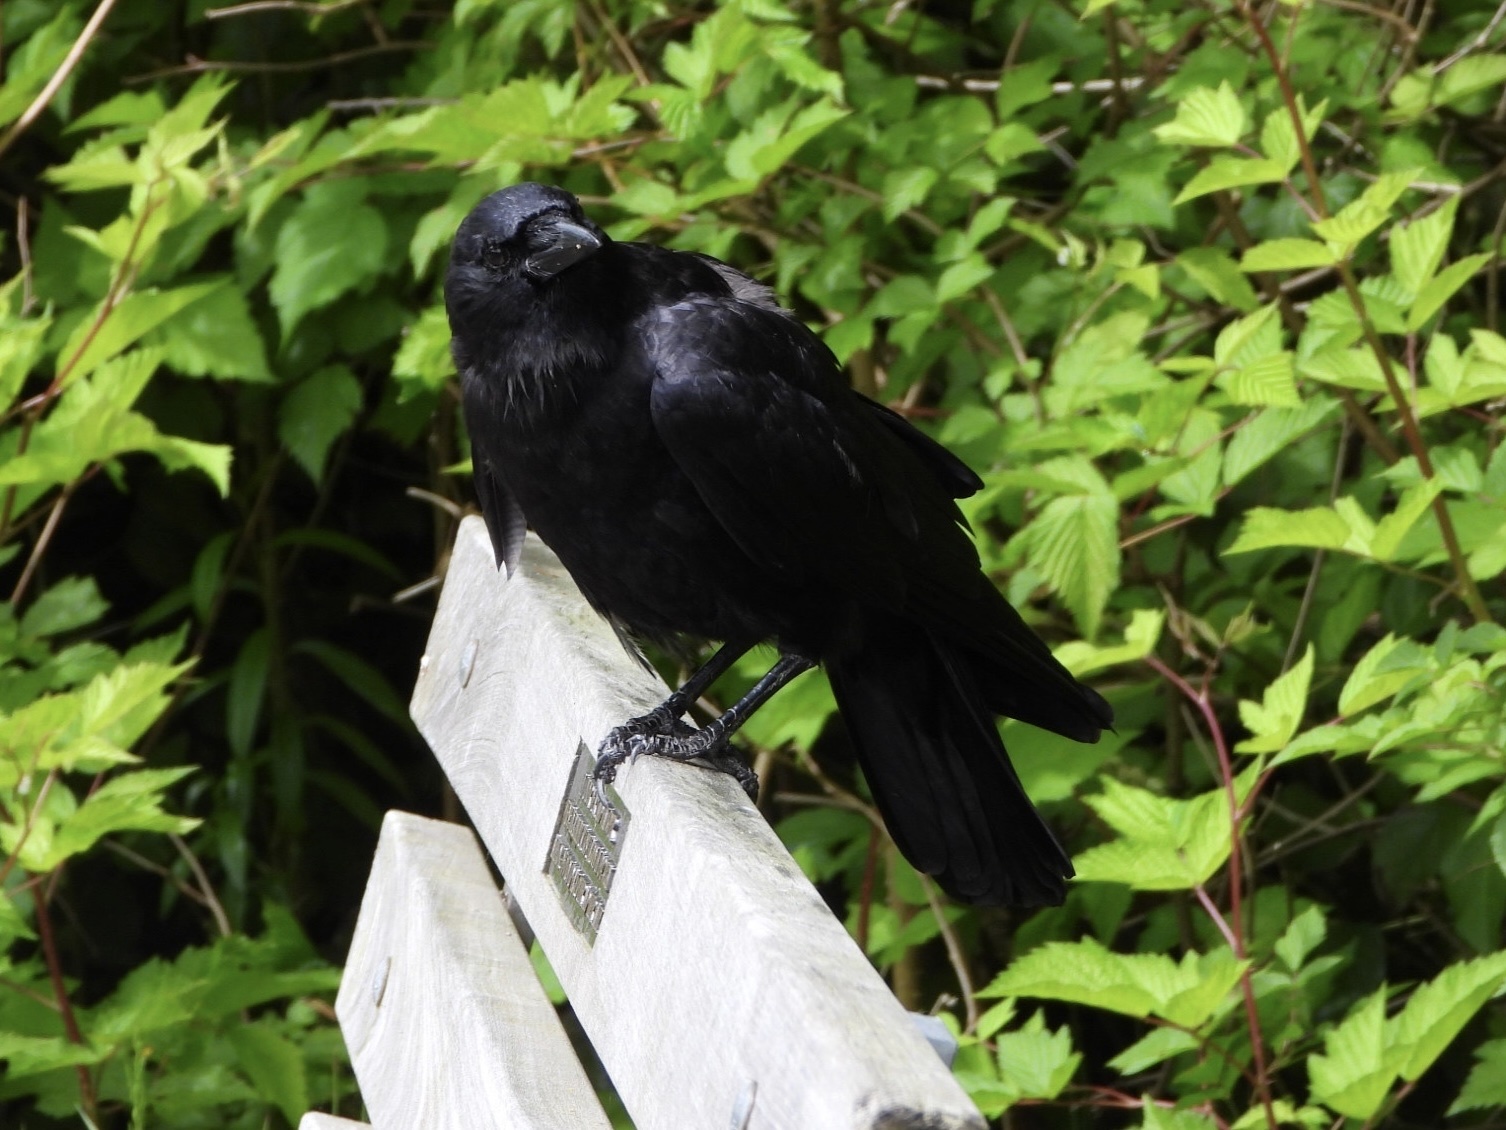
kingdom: Animalia
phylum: Chordata
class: Aves
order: Passeriformes
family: Corvidae
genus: Corvus
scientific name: Corvus brachyrhynchos
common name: American crow
